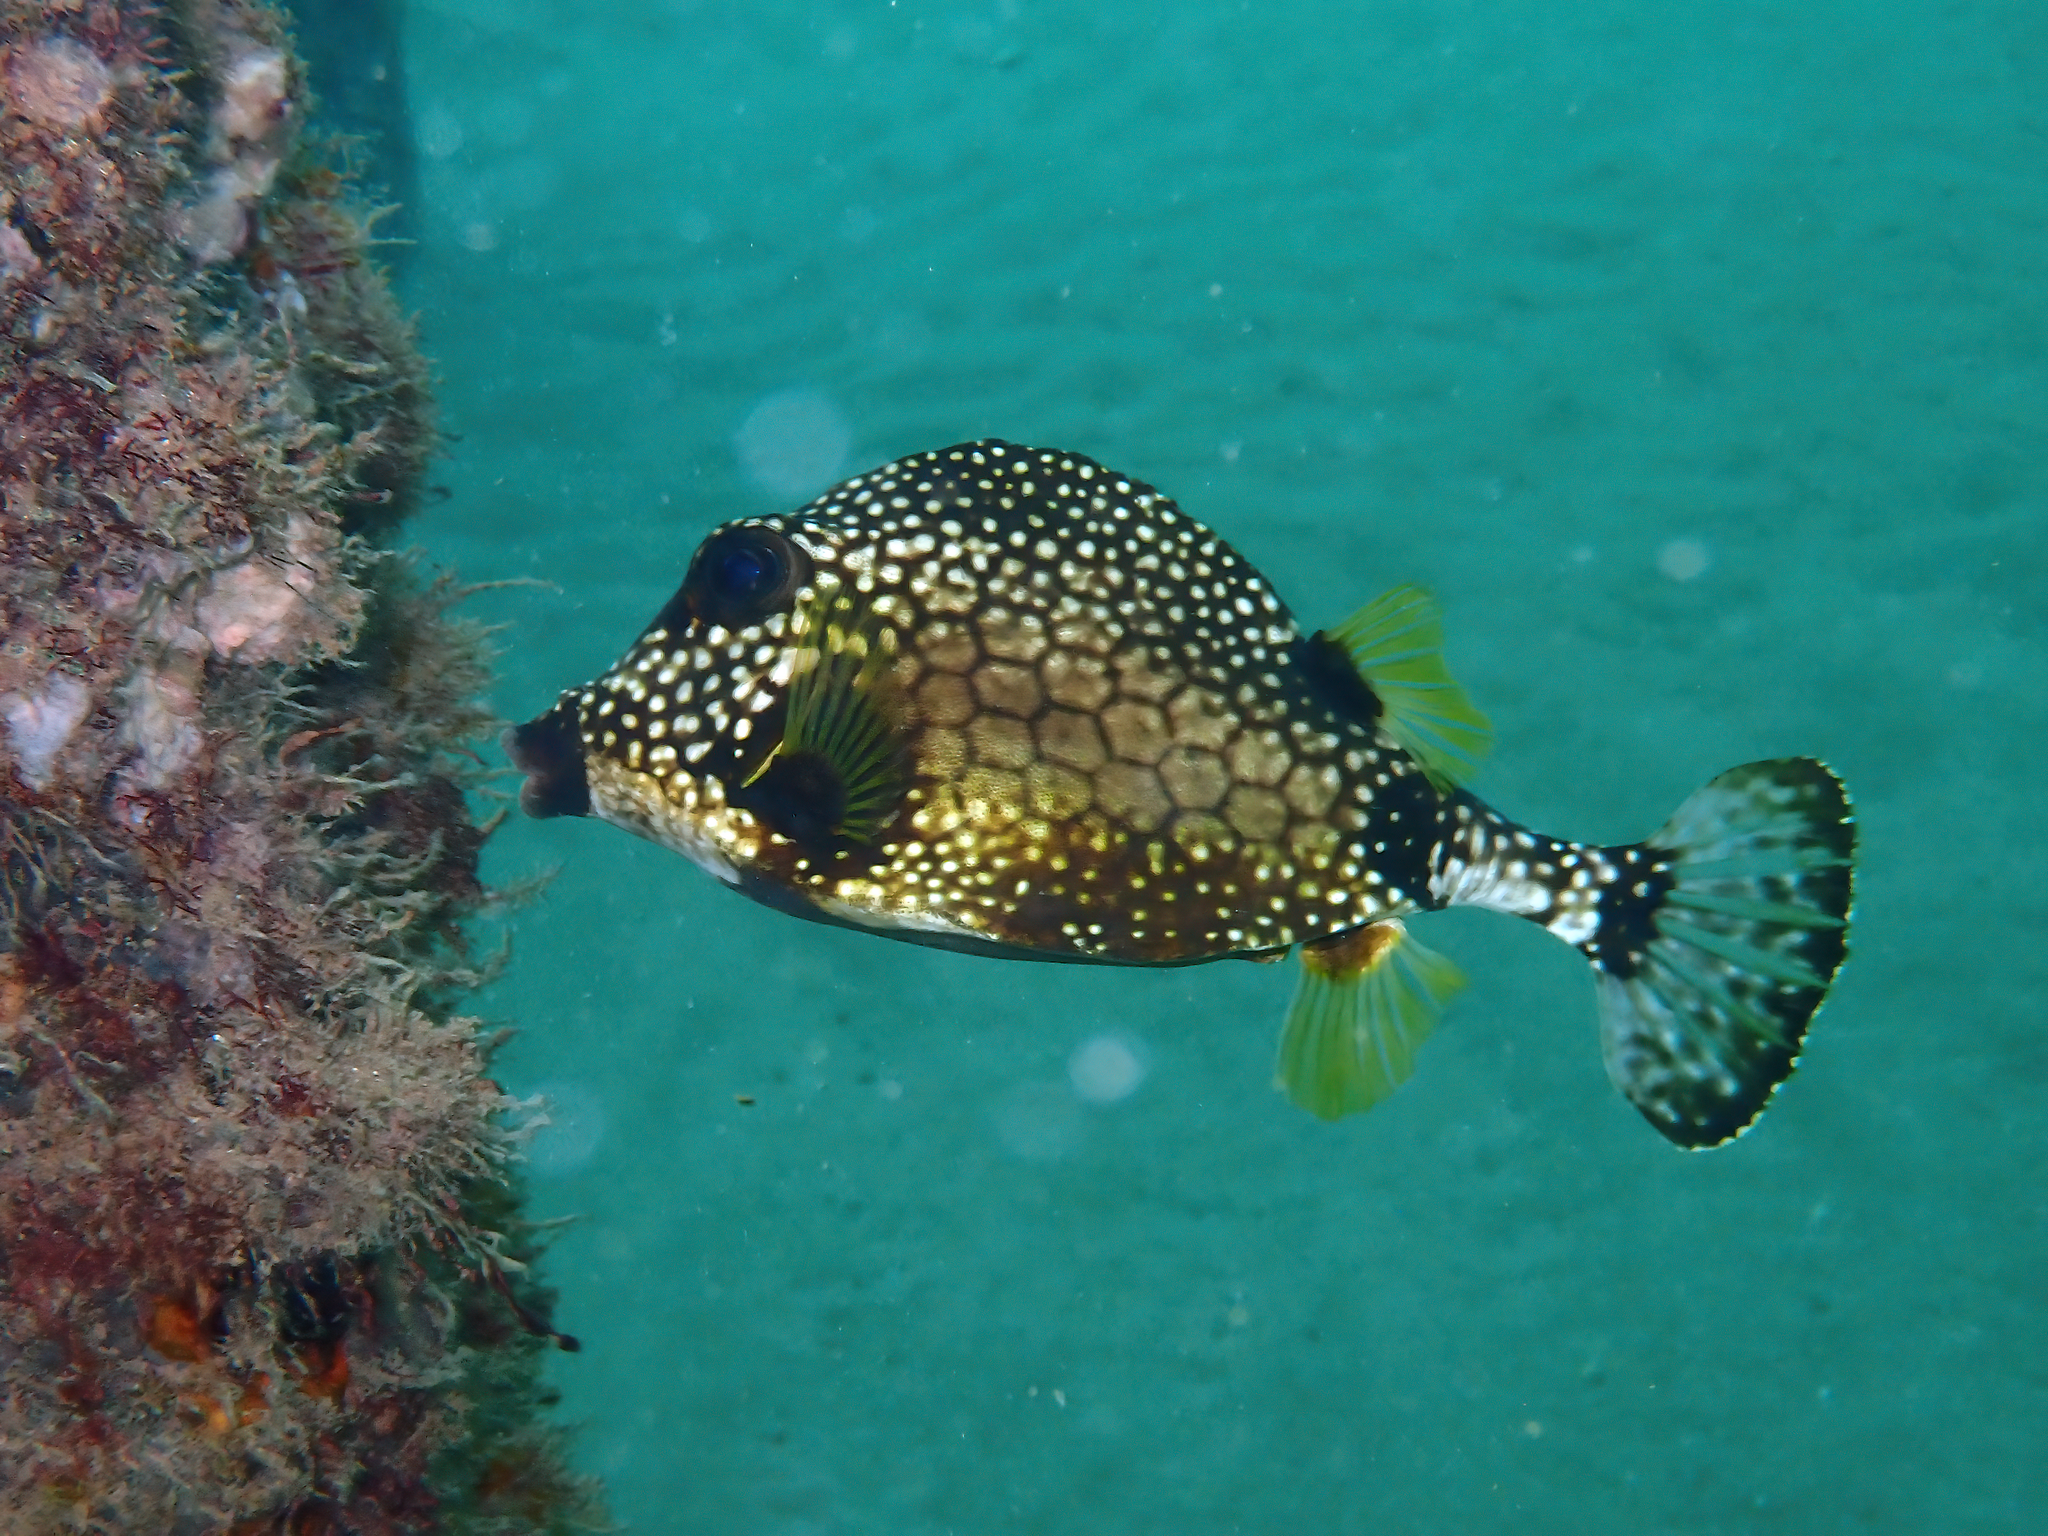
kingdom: Animalia
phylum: Chordata
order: Tetraodontiformes
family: Ostraciidae
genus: Lactophrys
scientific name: Lactophrys triqueter
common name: Smooth trunkfish
